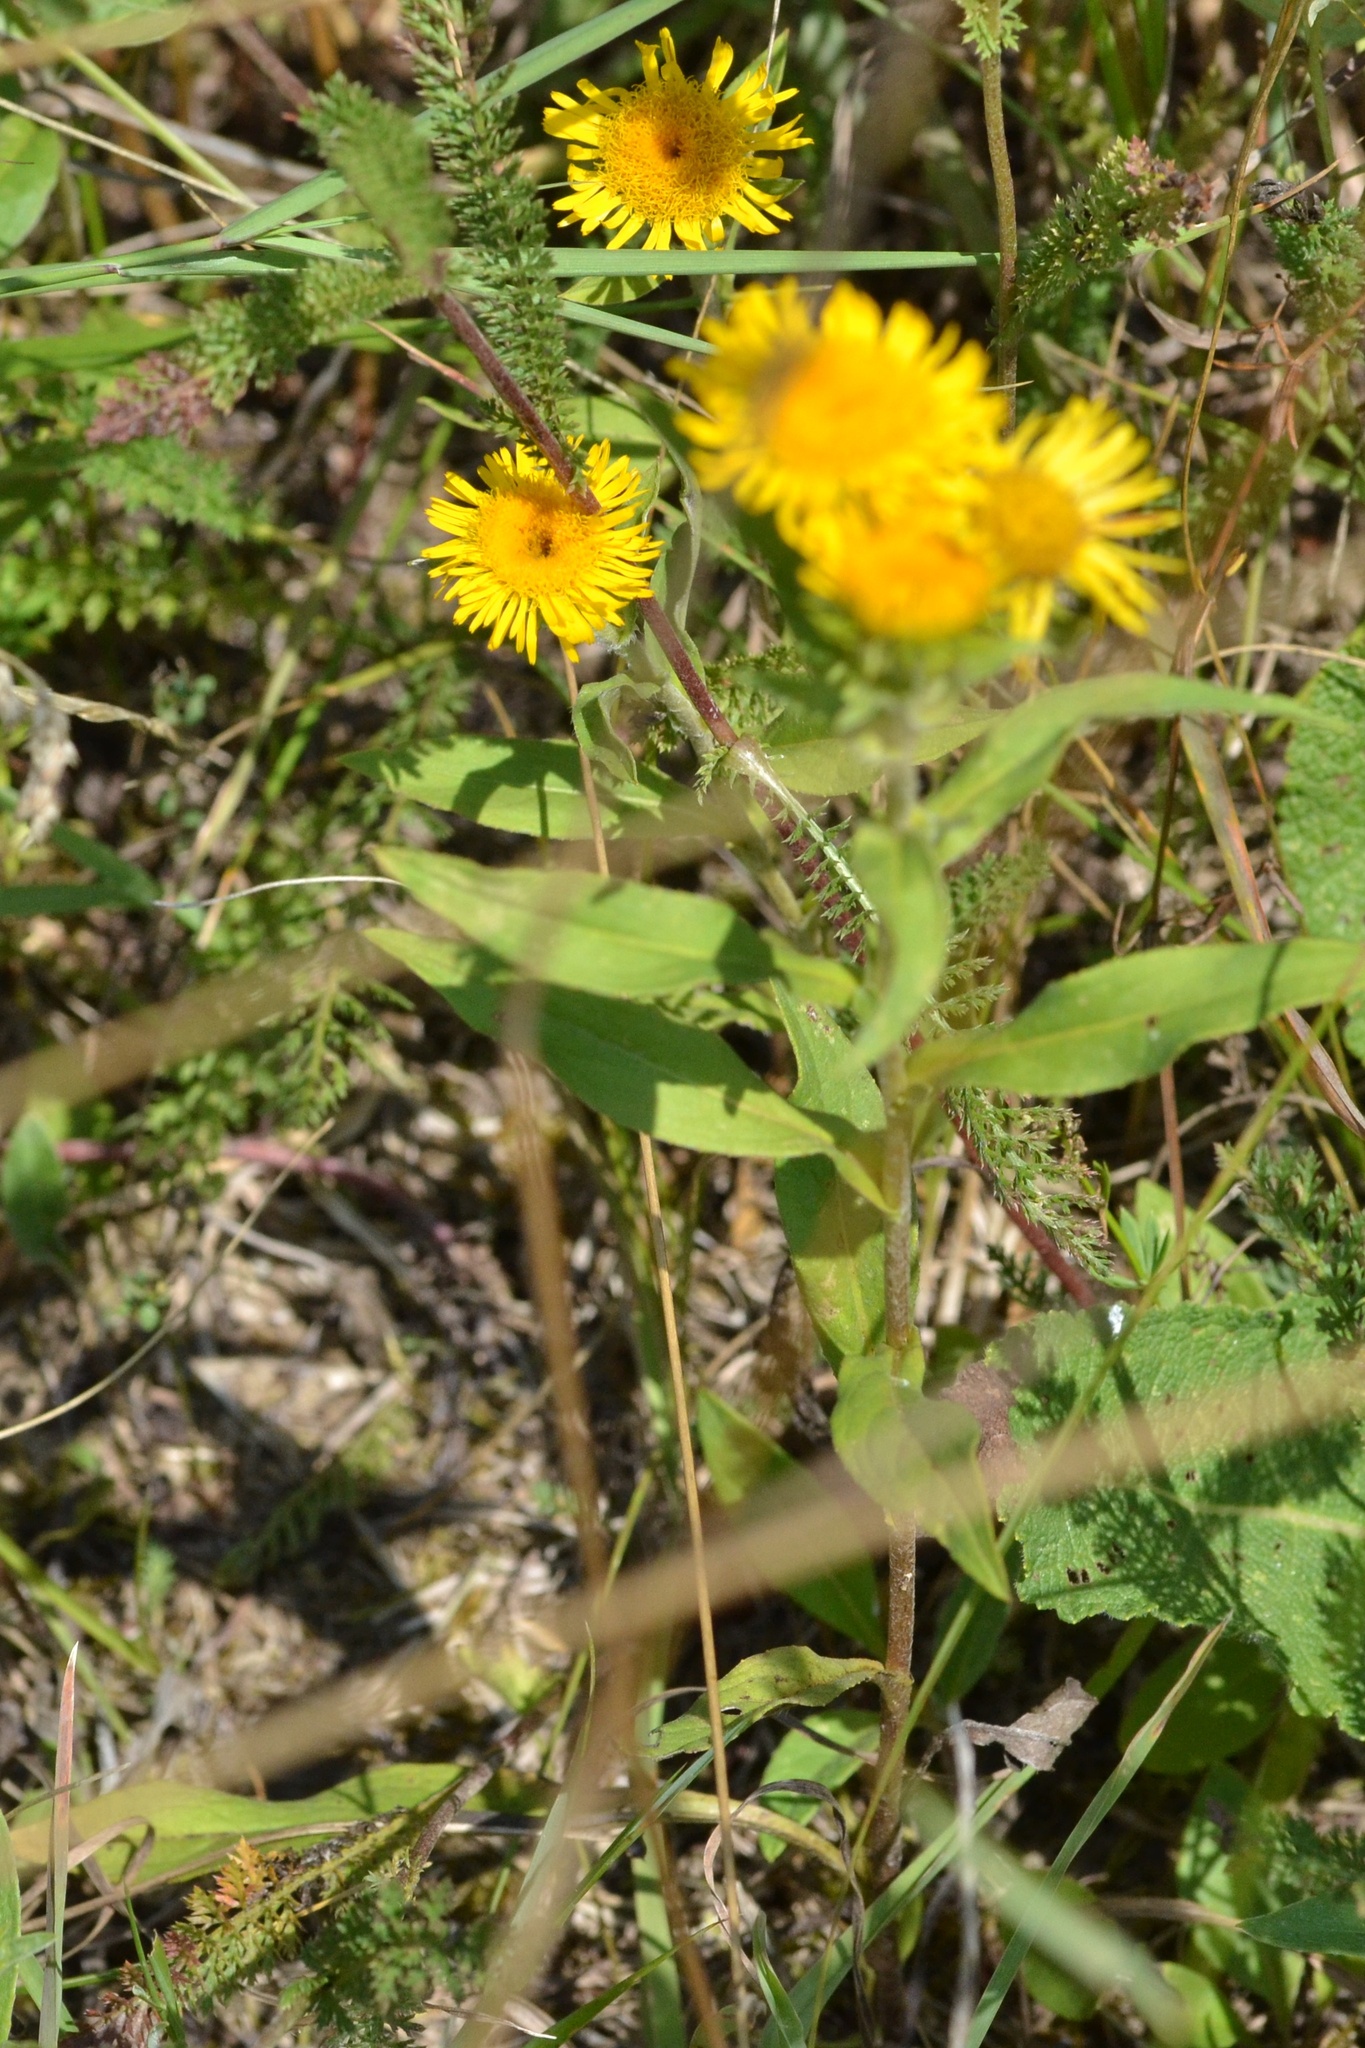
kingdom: Plantae
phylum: Tracheophyta
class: Magnoliopsida
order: Asterales
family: Asteraceae
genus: Pentanema
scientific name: Pentanema britannicum
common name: British elecampane
